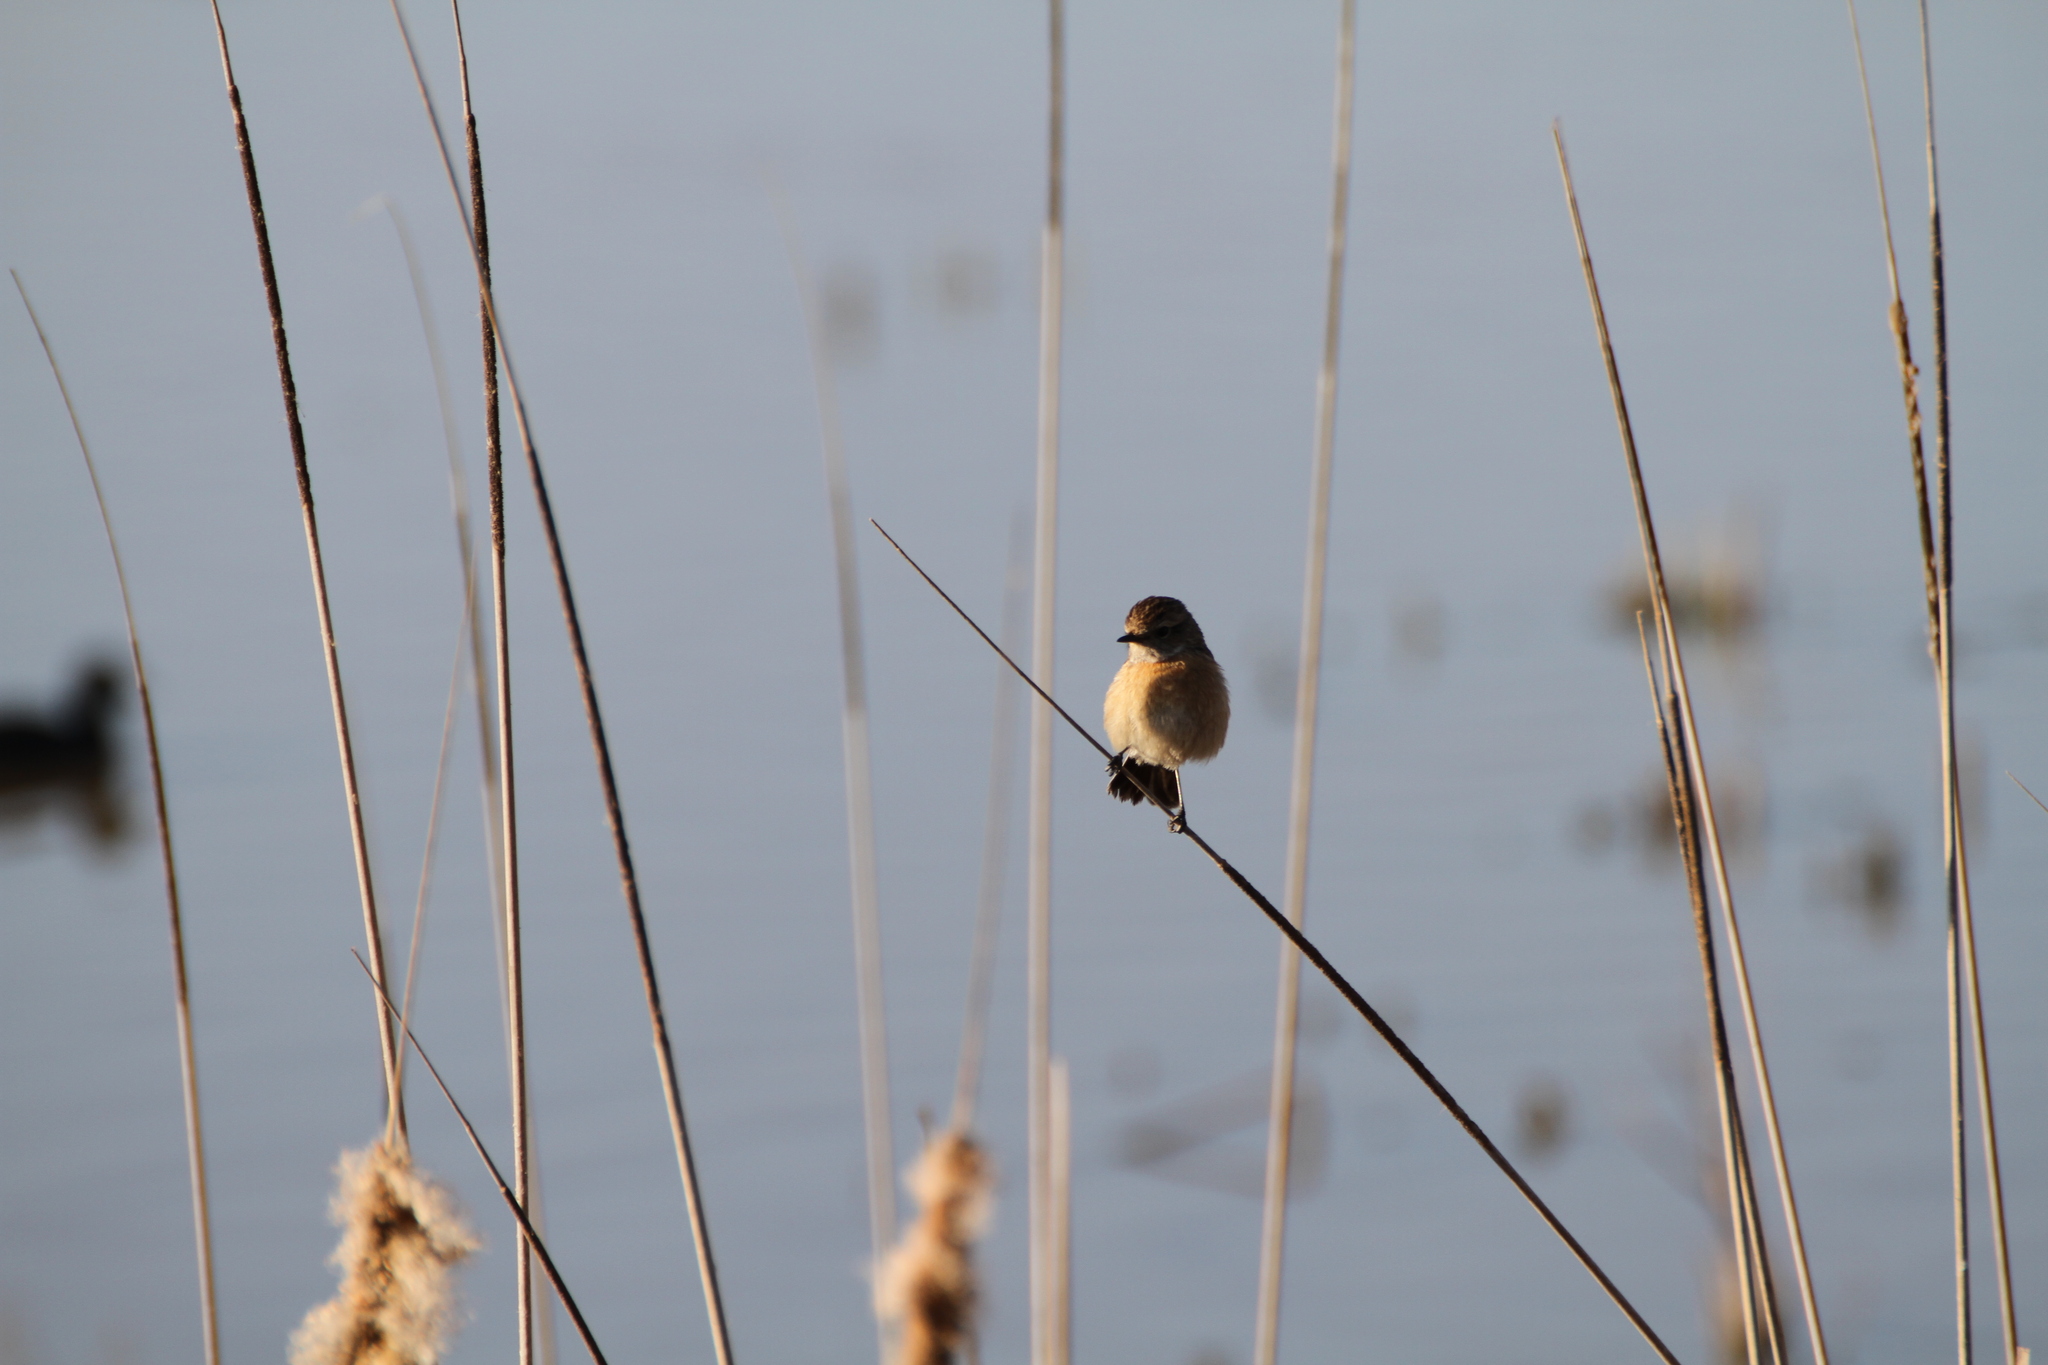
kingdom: Animalia
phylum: Chordata
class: Aves
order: Passeriformes
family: Muscicapidae
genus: Saxicola
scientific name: Saxicola rubicola
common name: European stonechat
